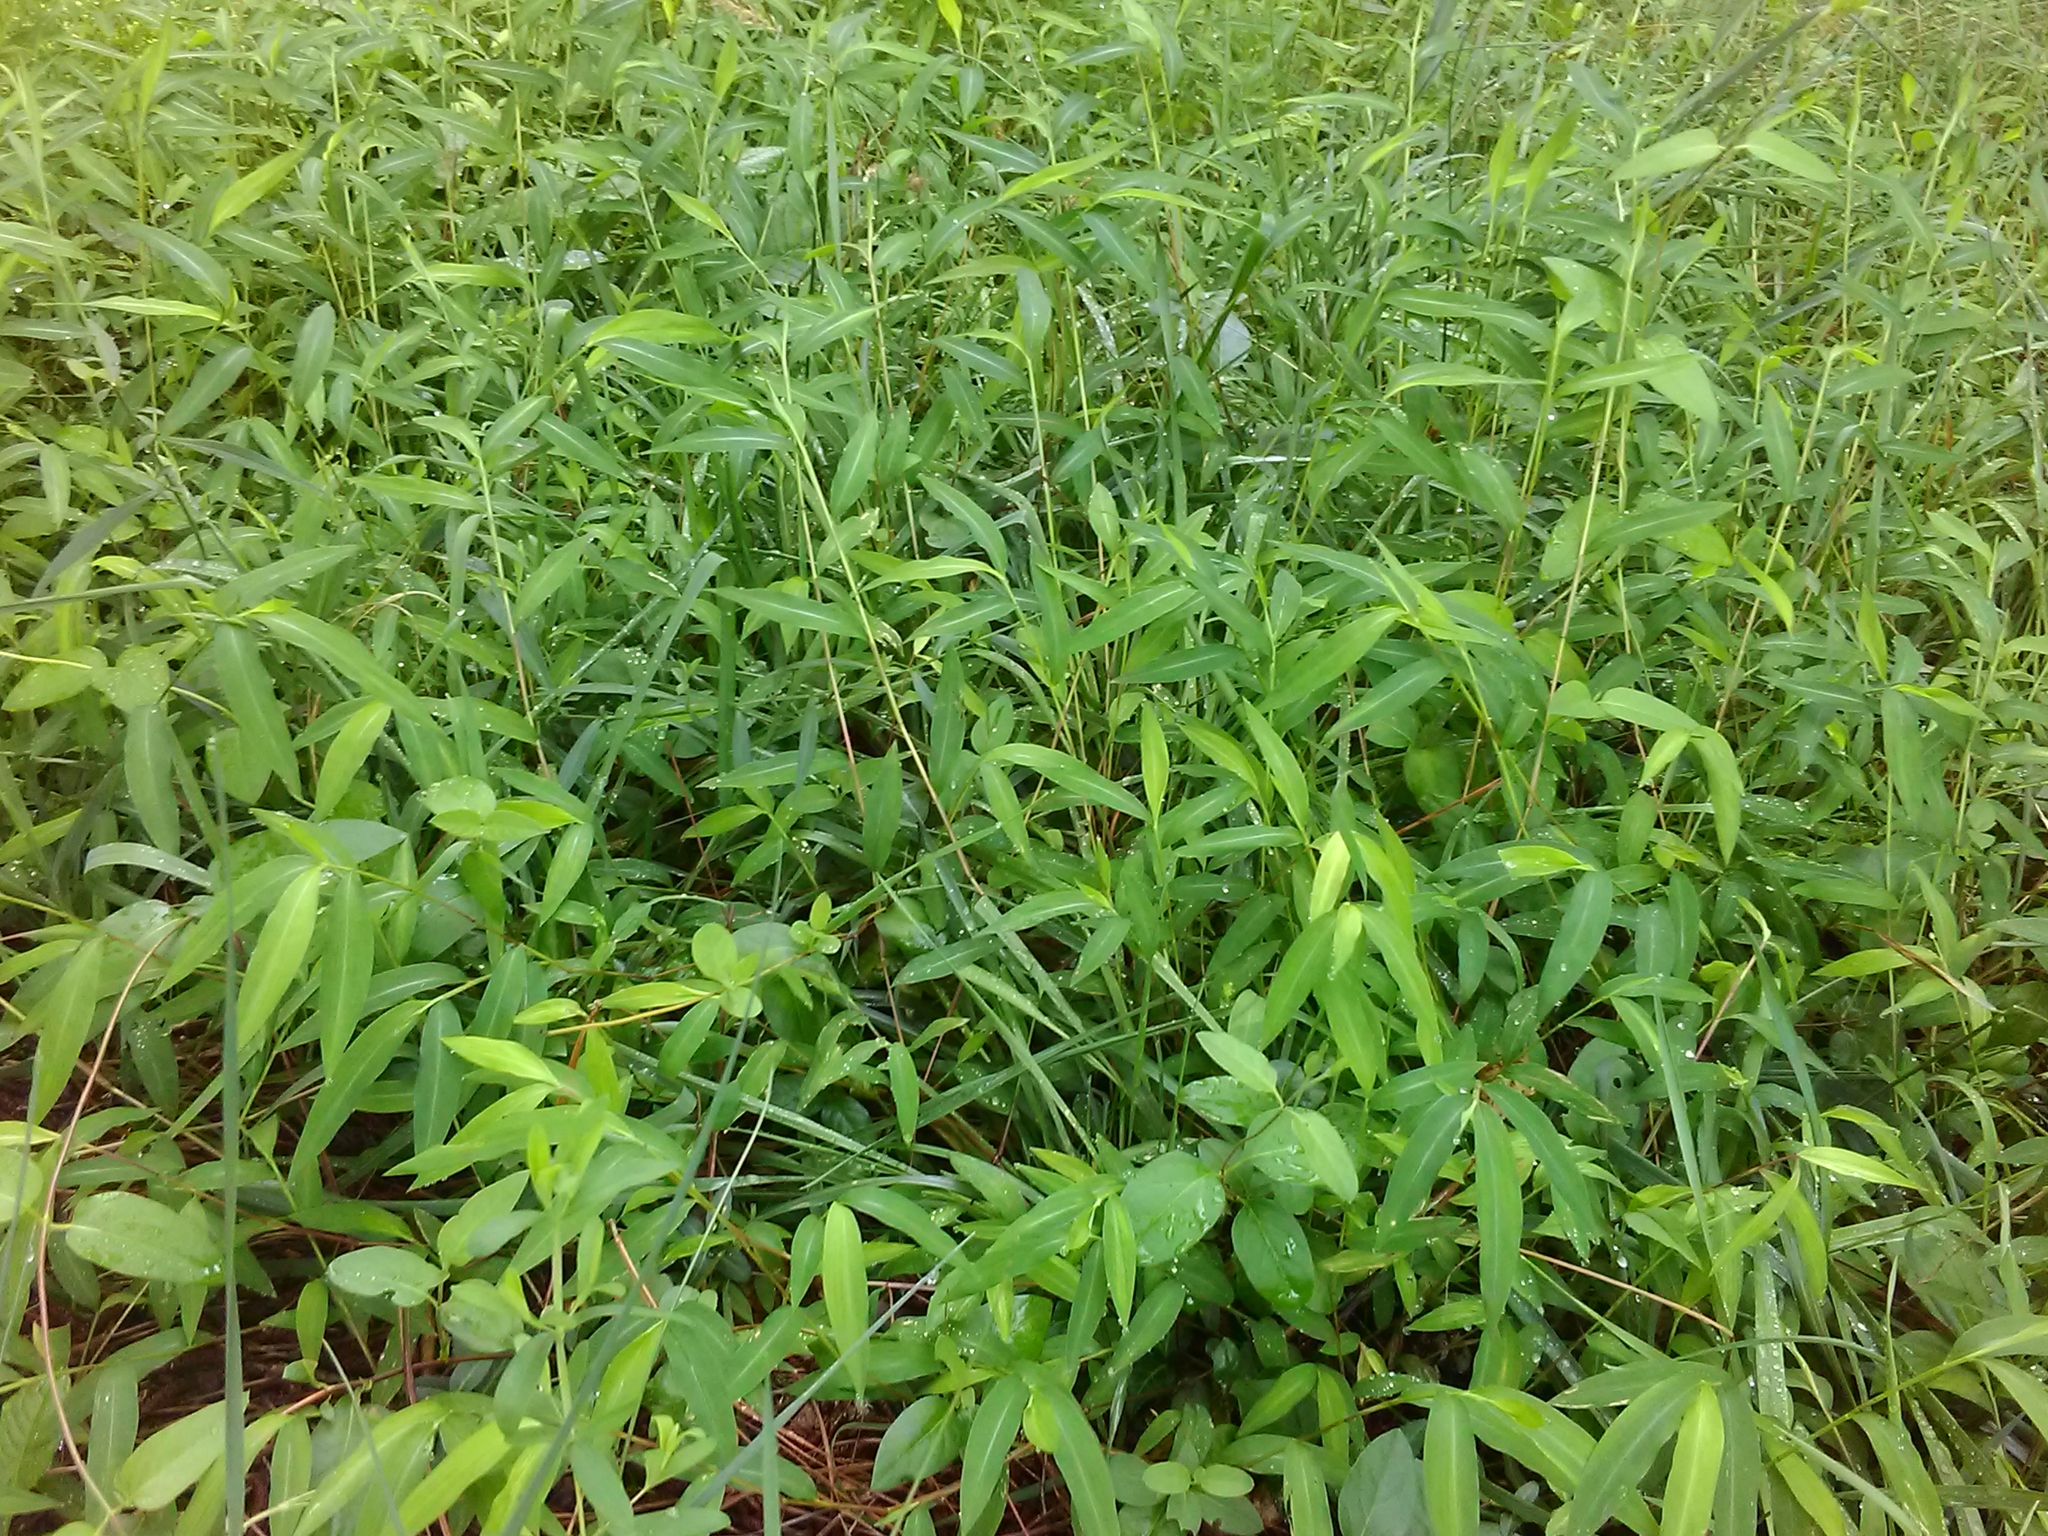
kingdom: Plantae
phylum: Tracheophyta
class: Liliopsida
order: Poales
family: Poaceae
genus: Microstegium
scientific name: Microstegium vimineum
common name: Japanese stiltgrass
